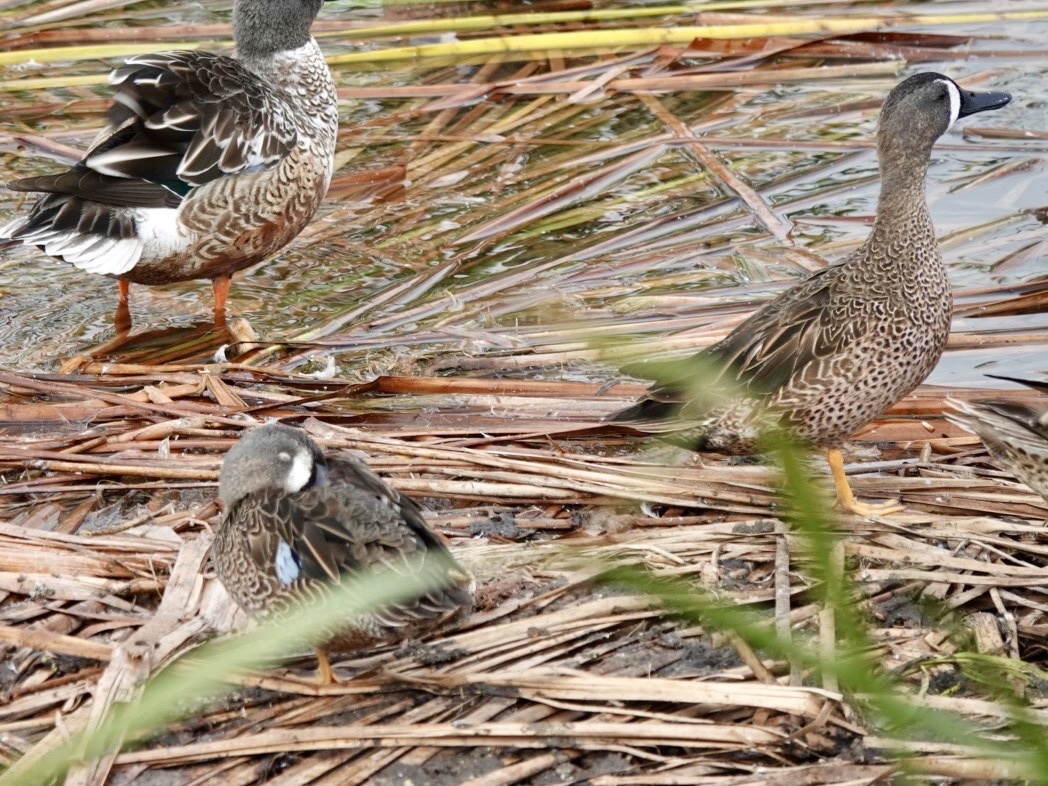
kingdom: Animalia
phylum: Chordata
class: Aves
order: Anseriformes
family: Anatidae
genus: Spatula
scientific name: Spatula discors
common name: Blue-winged teal
